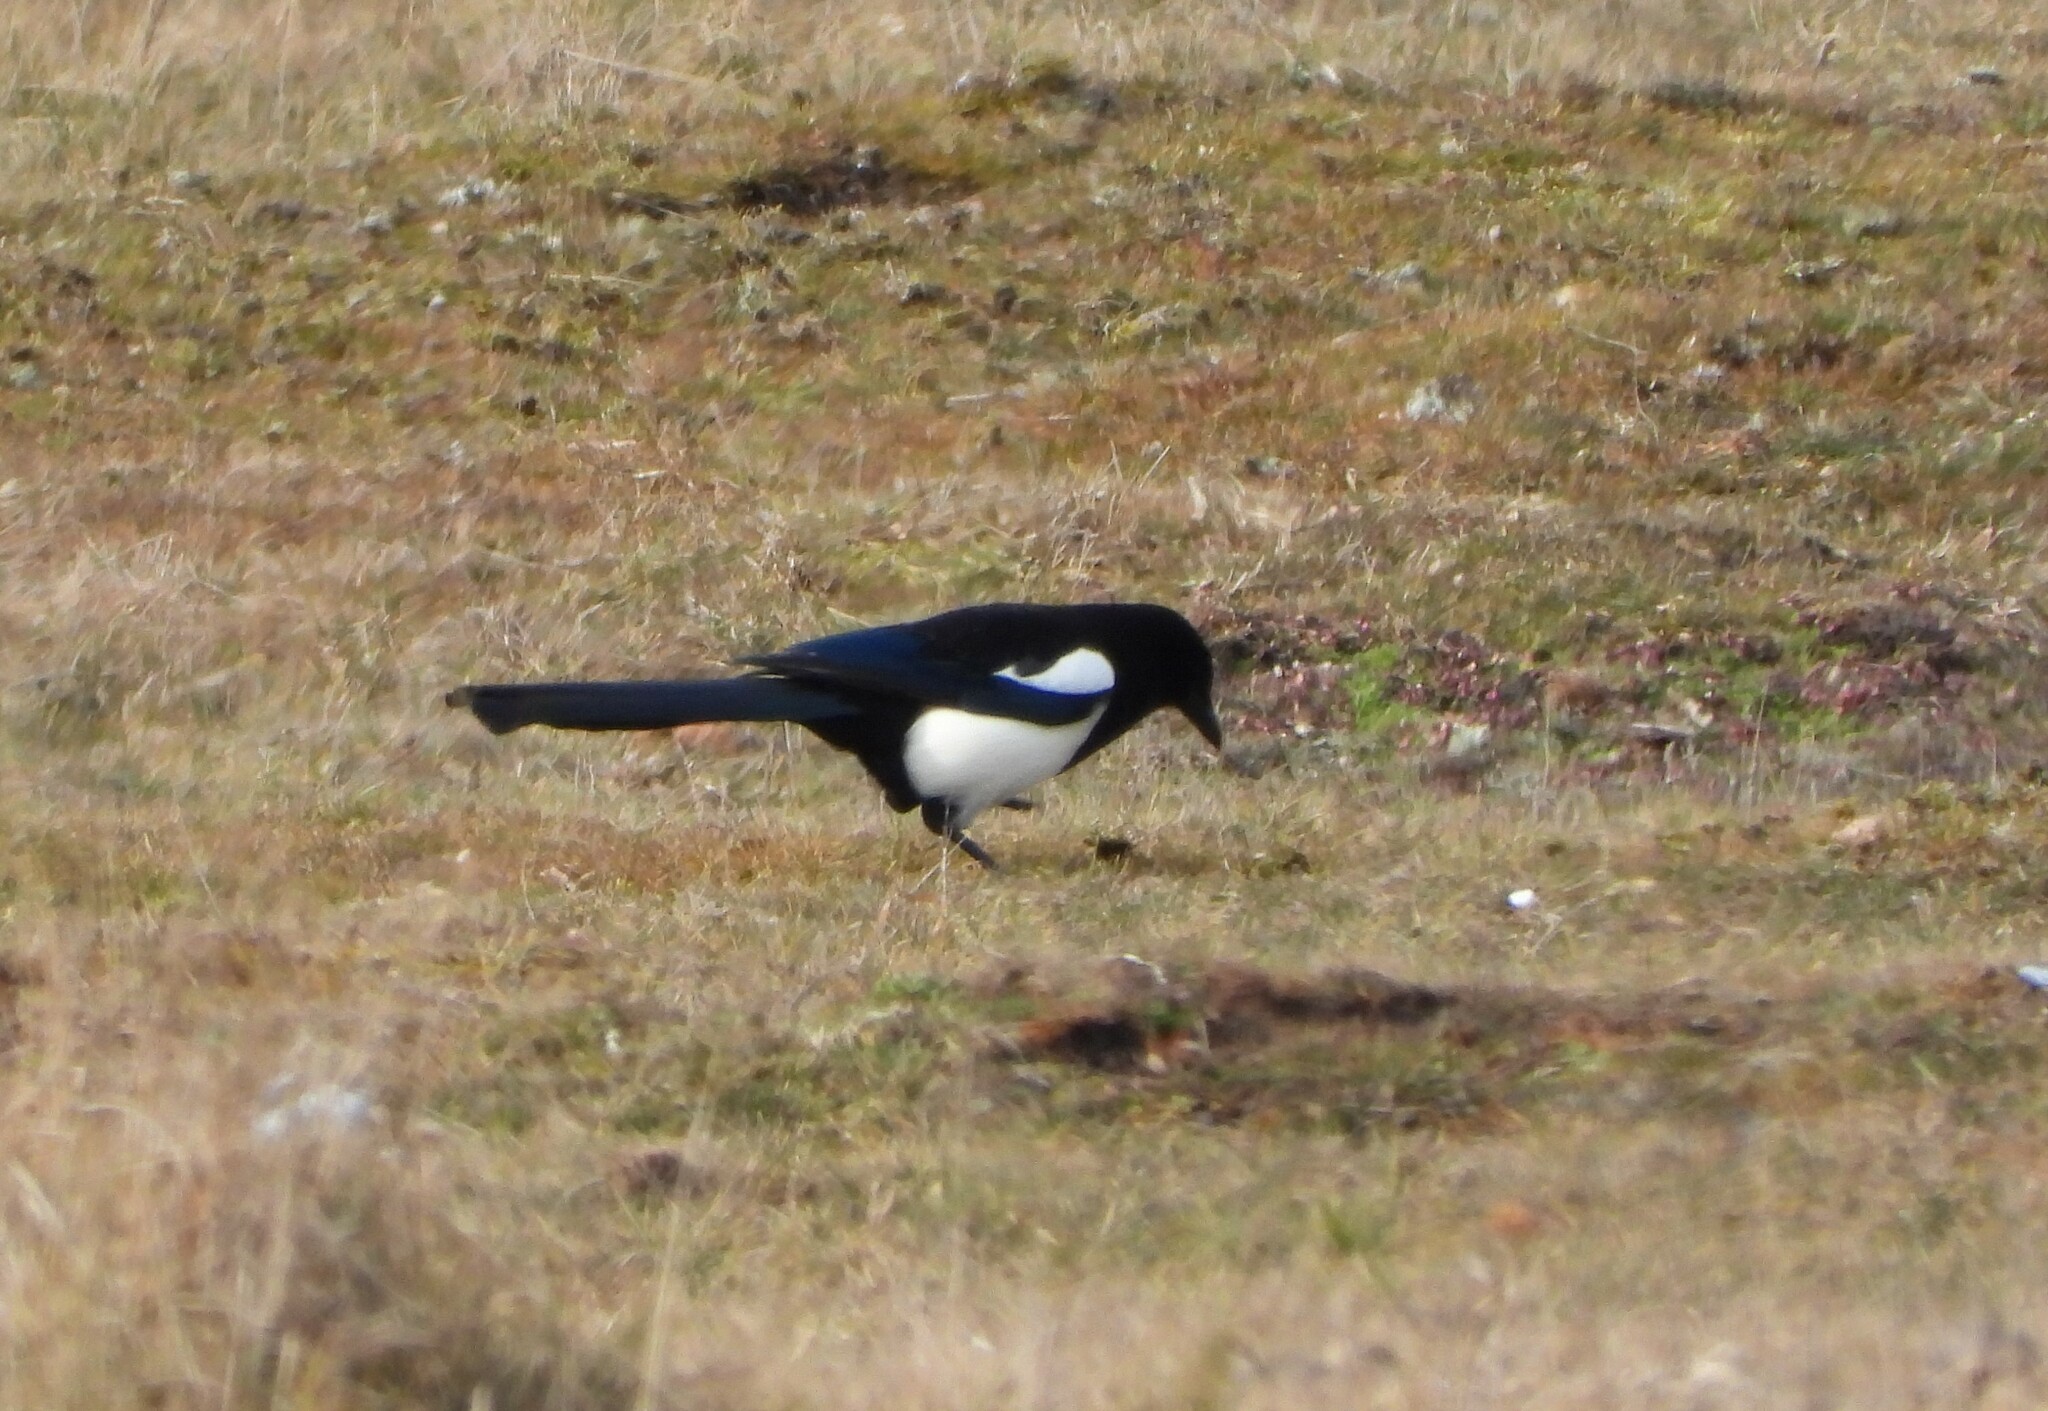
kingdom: Animalia
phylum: Chordata
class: Aves
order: Passeriformes
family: Corvidae
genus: Pica
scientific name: Pica pica
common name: Eurasian magpie
